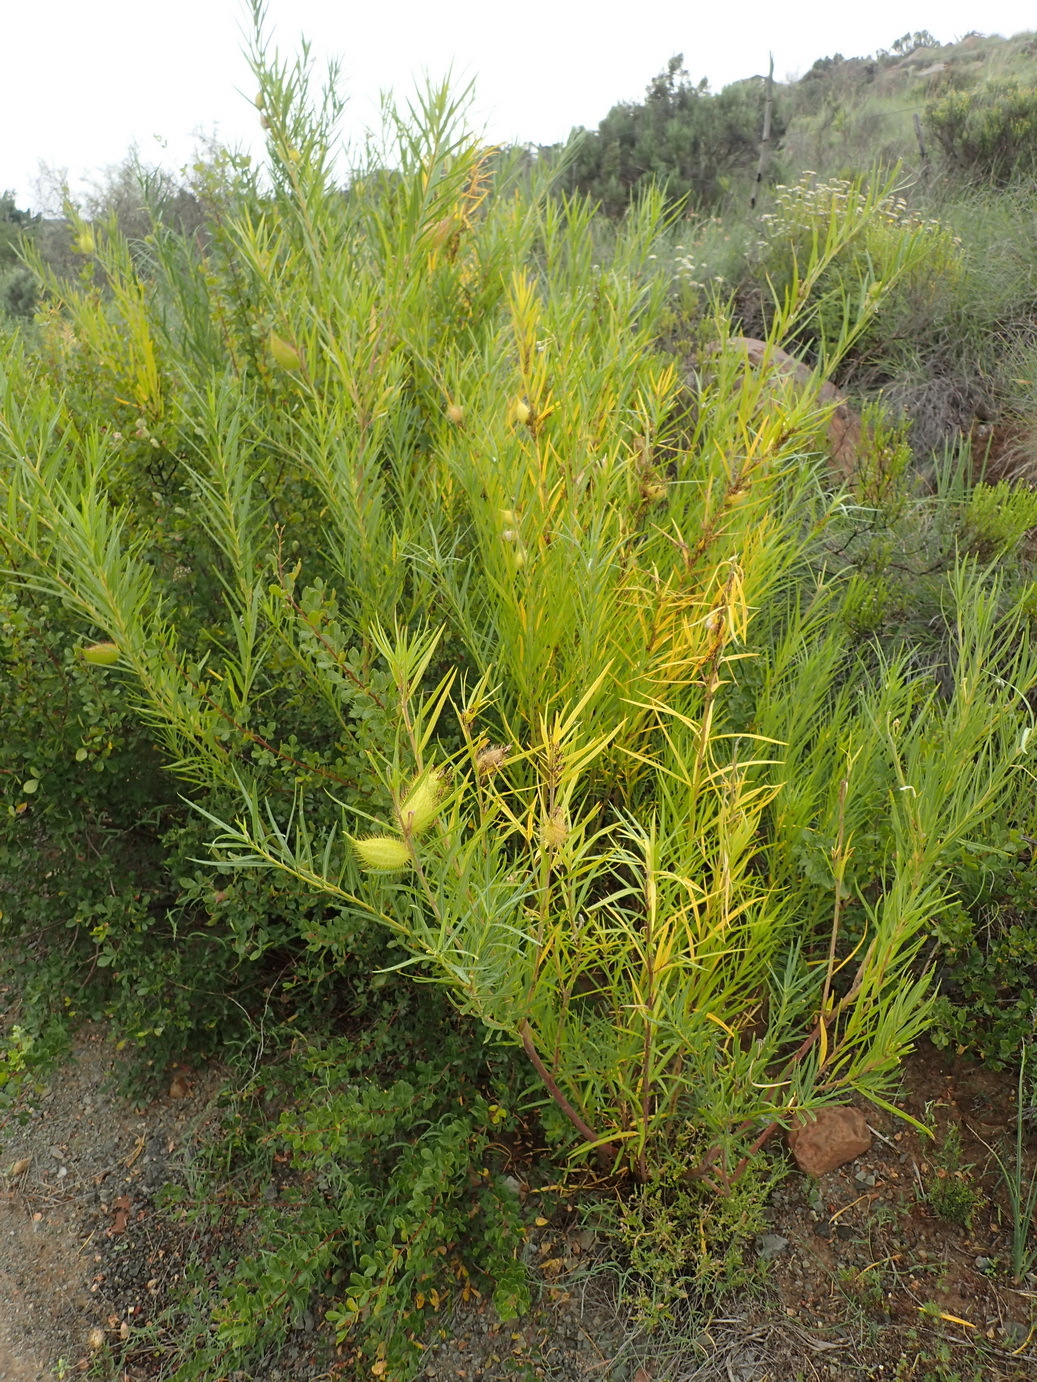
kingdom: Plantae
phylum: Tracheophyta
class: Magnoliopsida
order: Gentianales
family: Apocynaceae
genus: Gomphocarpus
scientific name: Gomphocarpus fruticosus
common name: Milkweed
